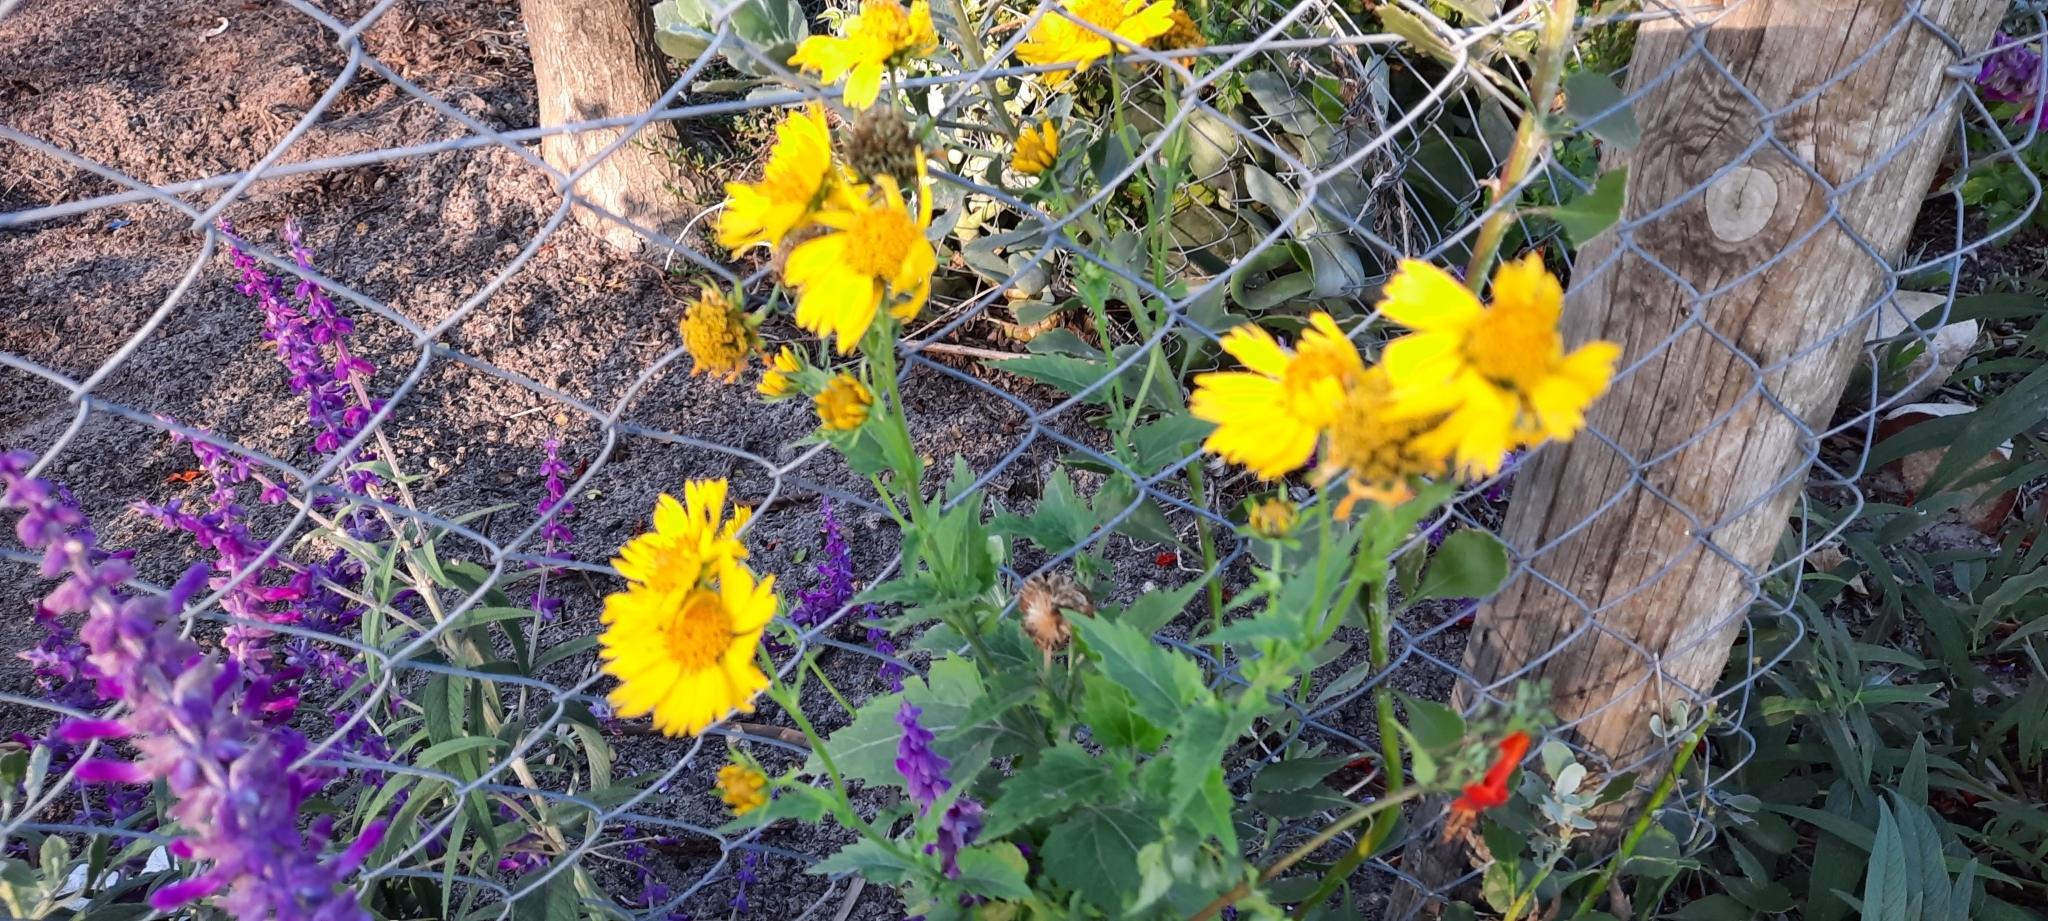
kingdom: Plantae
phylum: Tracheophyta
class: Magnoliopsida
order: Asterales
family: Asteraceae
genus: Verbesina
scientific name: Verbesina encelioides
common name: Golden crownbeard
